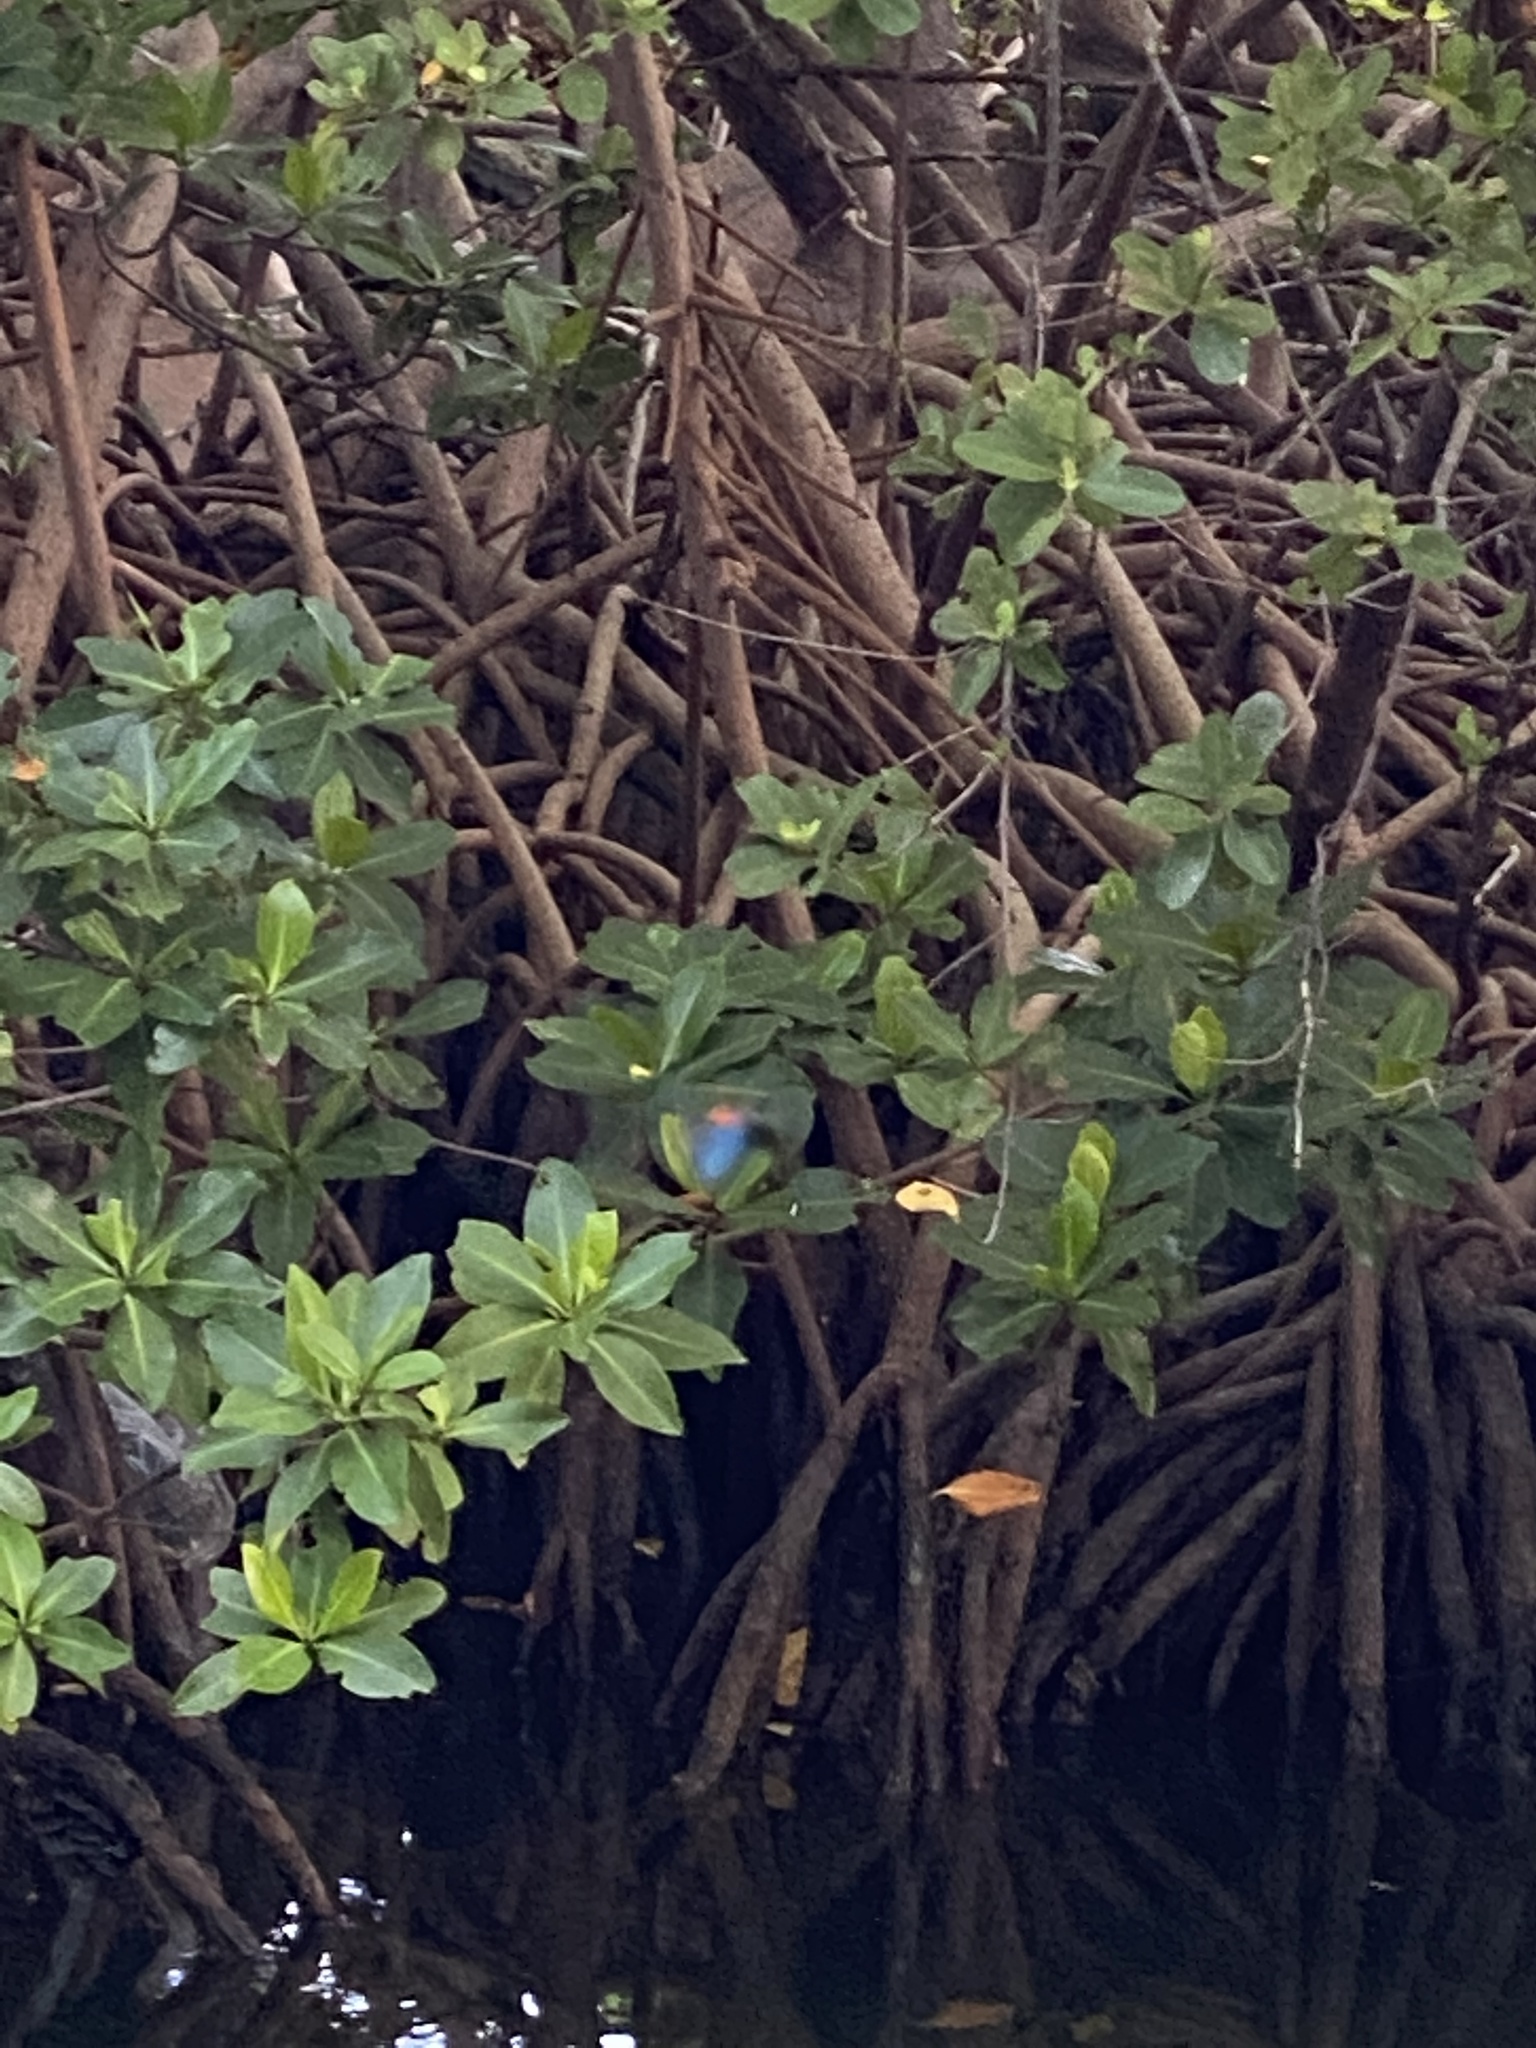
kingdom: Plantae
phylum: Tracheophyta
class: Magnoliopsida
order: Malpighiales
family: Rhizophoraceae
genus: Rhizophora
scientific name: Rhizophora mangle
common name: Red mangrove
